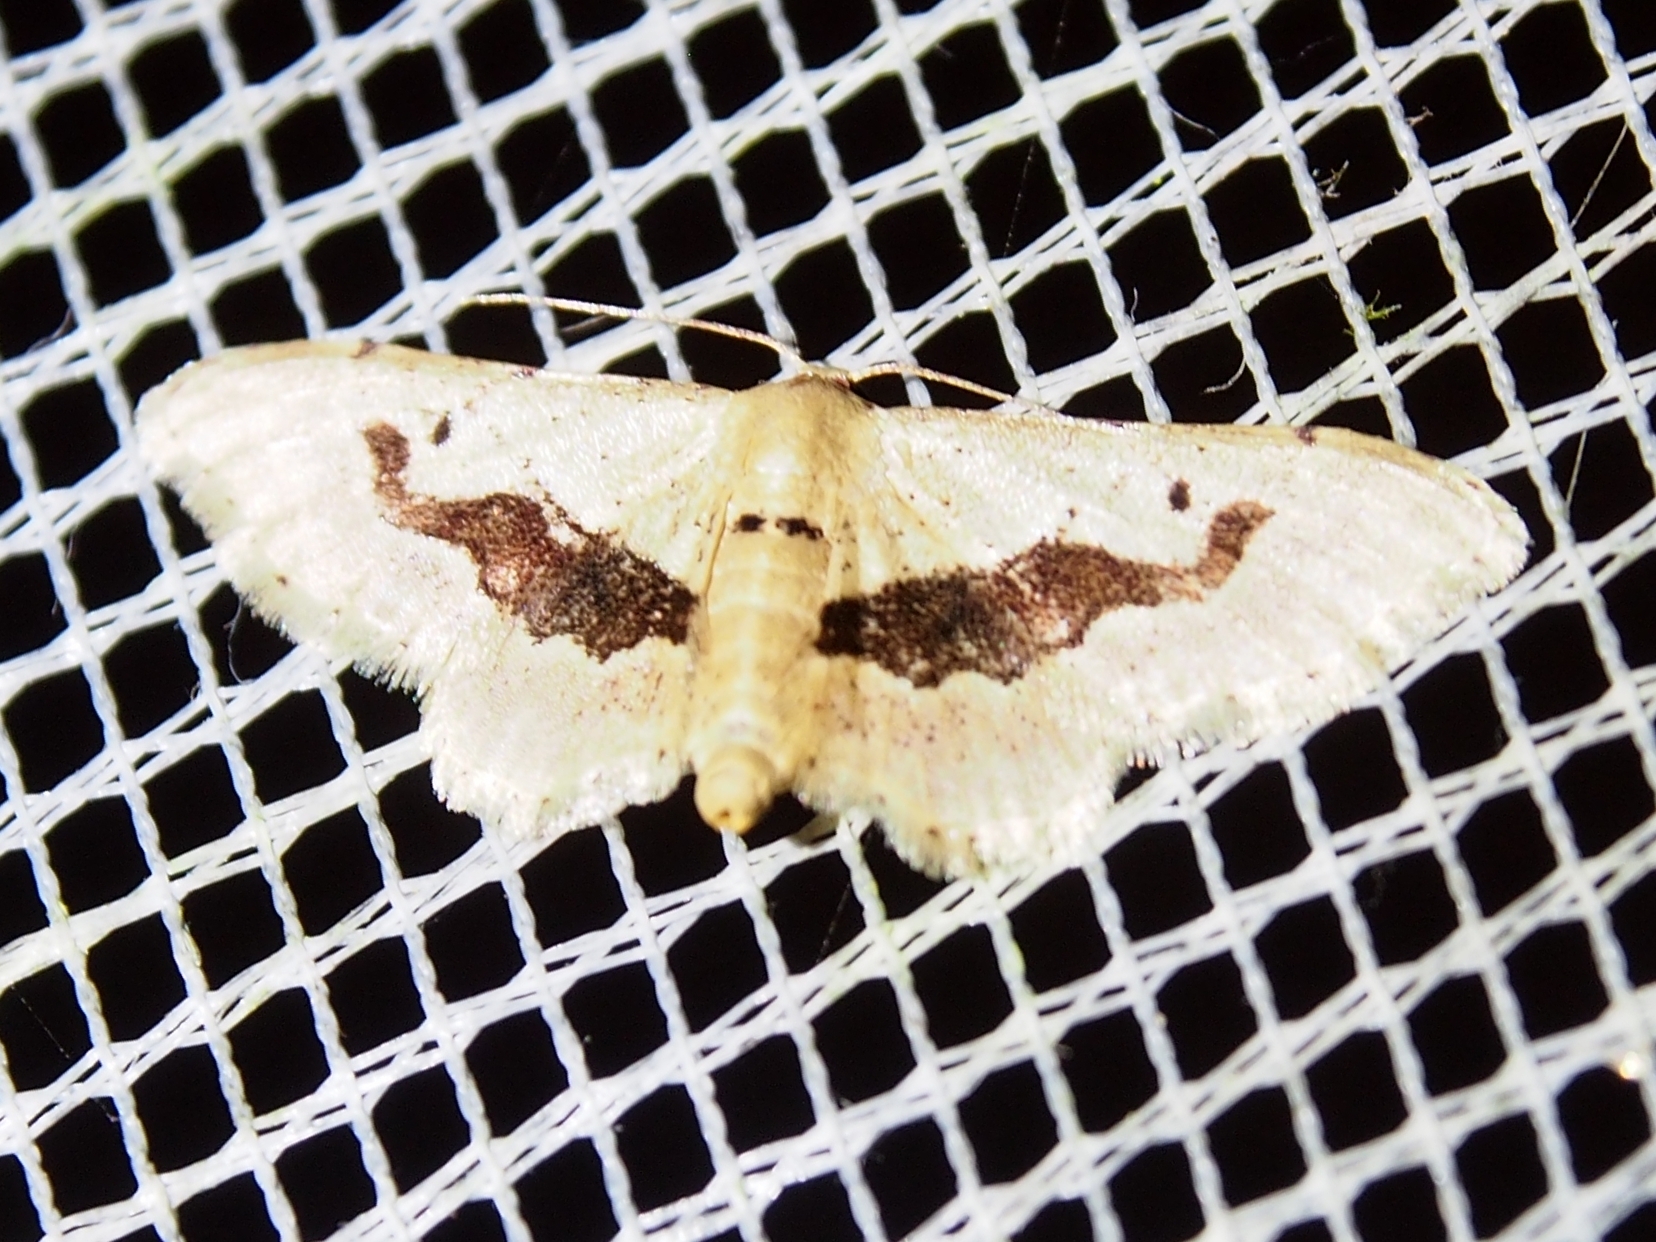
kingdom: Animalia
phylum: Arthropoda
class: Insecta
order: Lepidoptera
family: Geometridae
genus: Idaea
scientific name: Idaea triangulata
